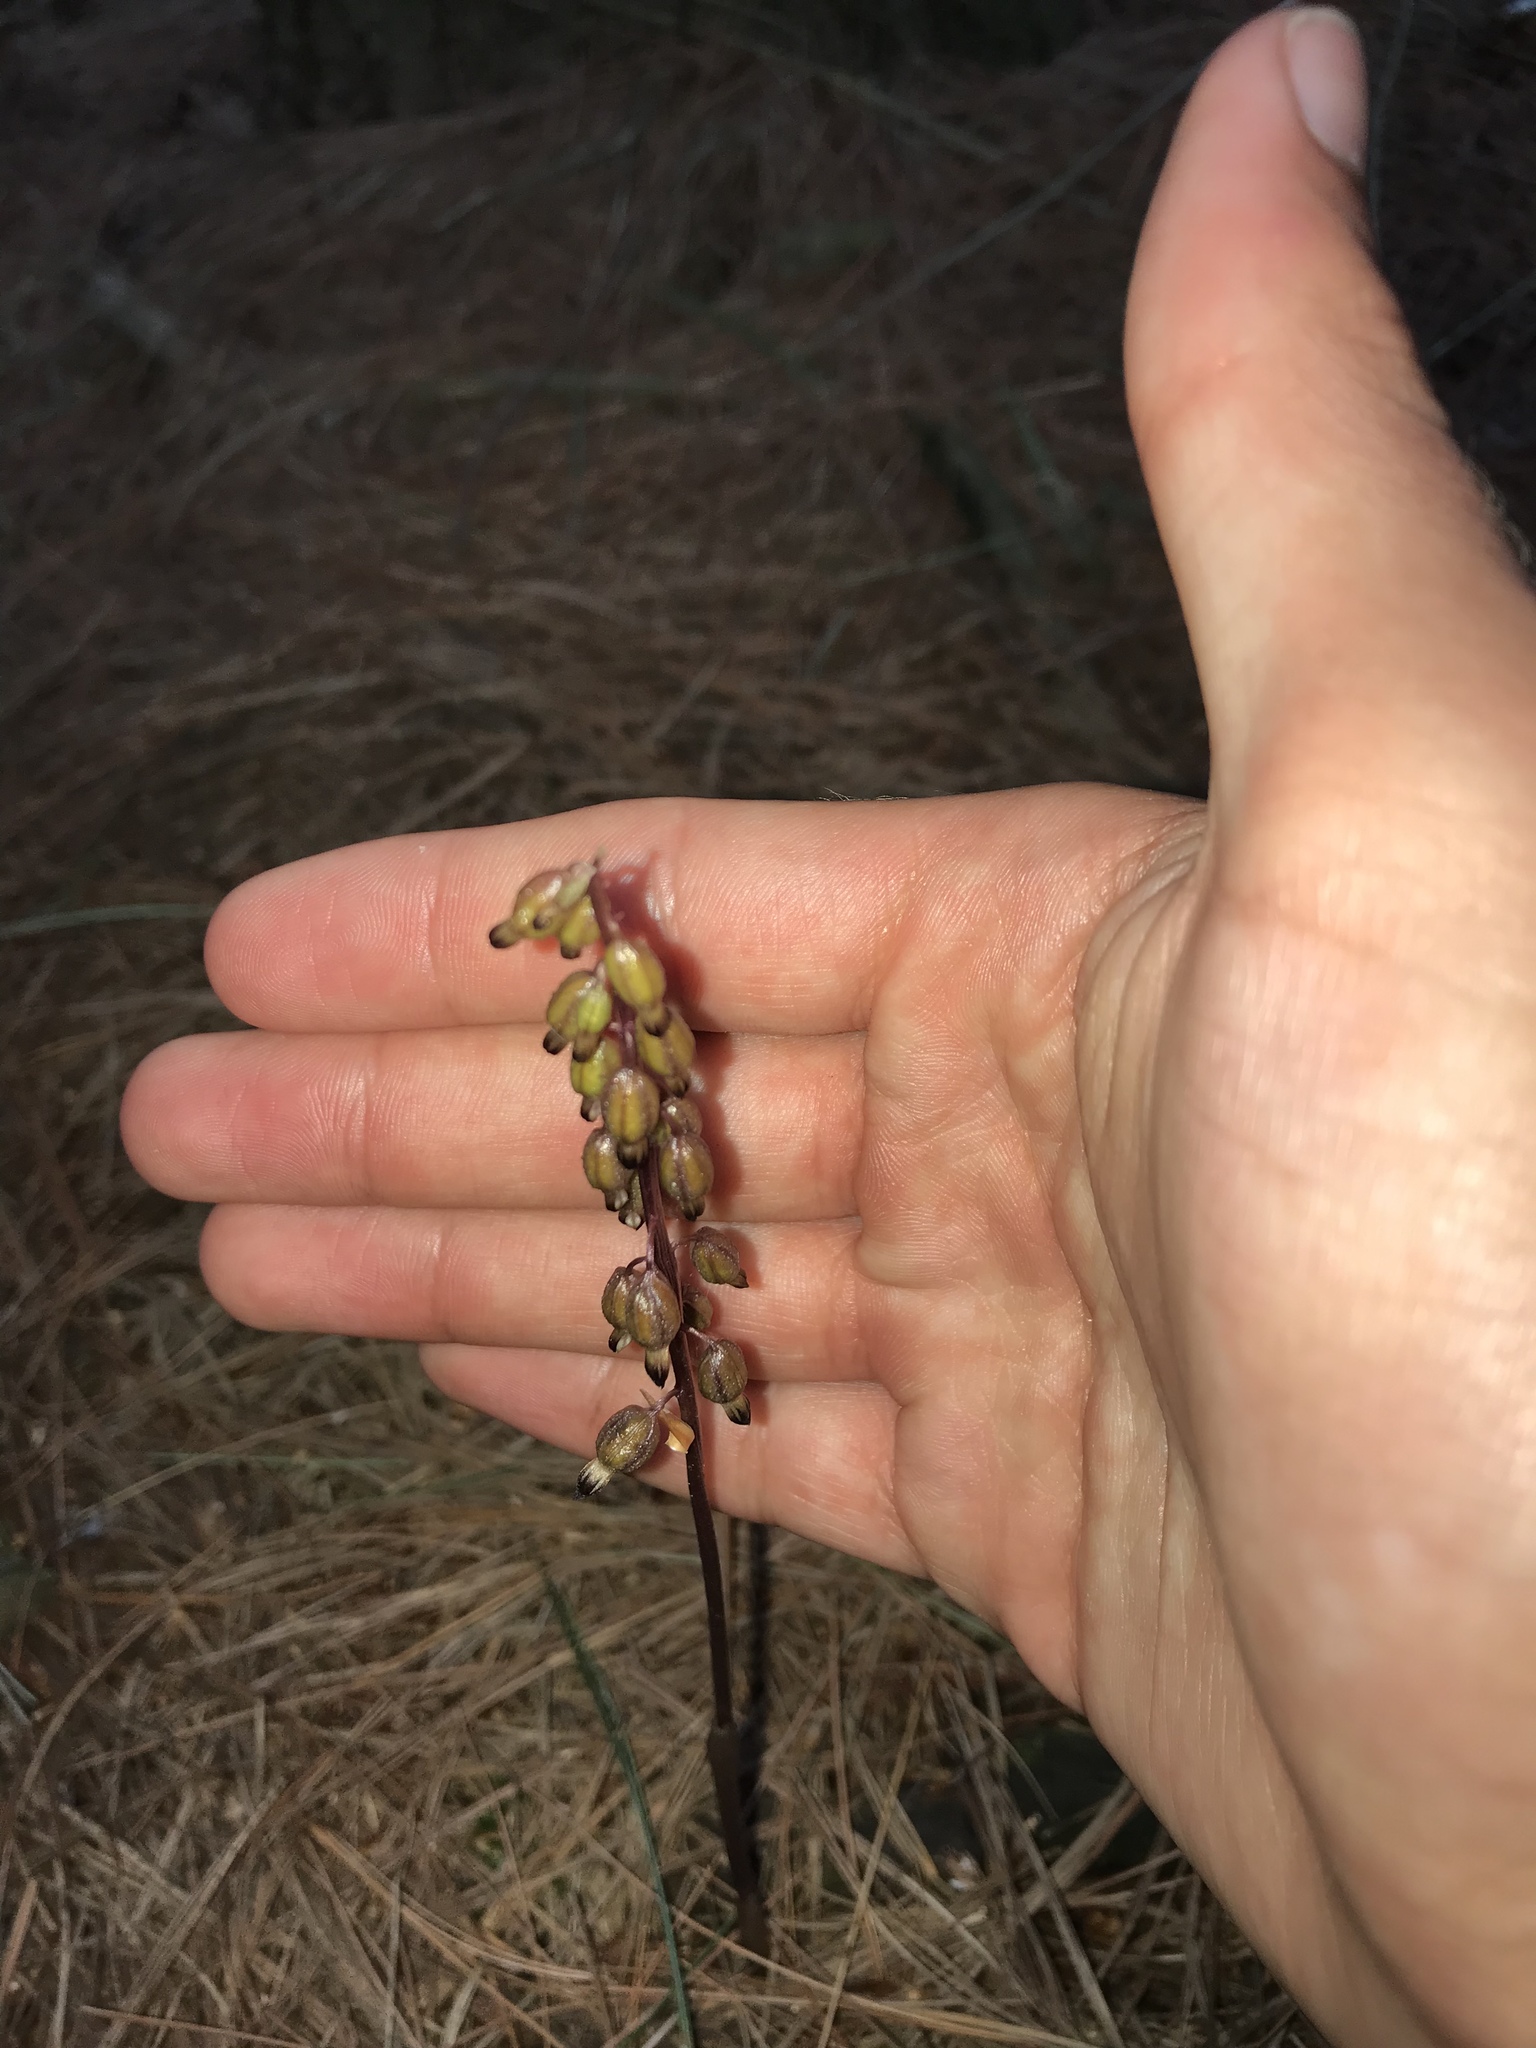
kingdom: Plantae
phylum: Tracheophyta
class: Liliopsida
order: Asparagales
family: Orchidaceae
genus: Corallorhiza
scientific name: Corallorhiza odontorhiza
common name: Autumn coralroot
